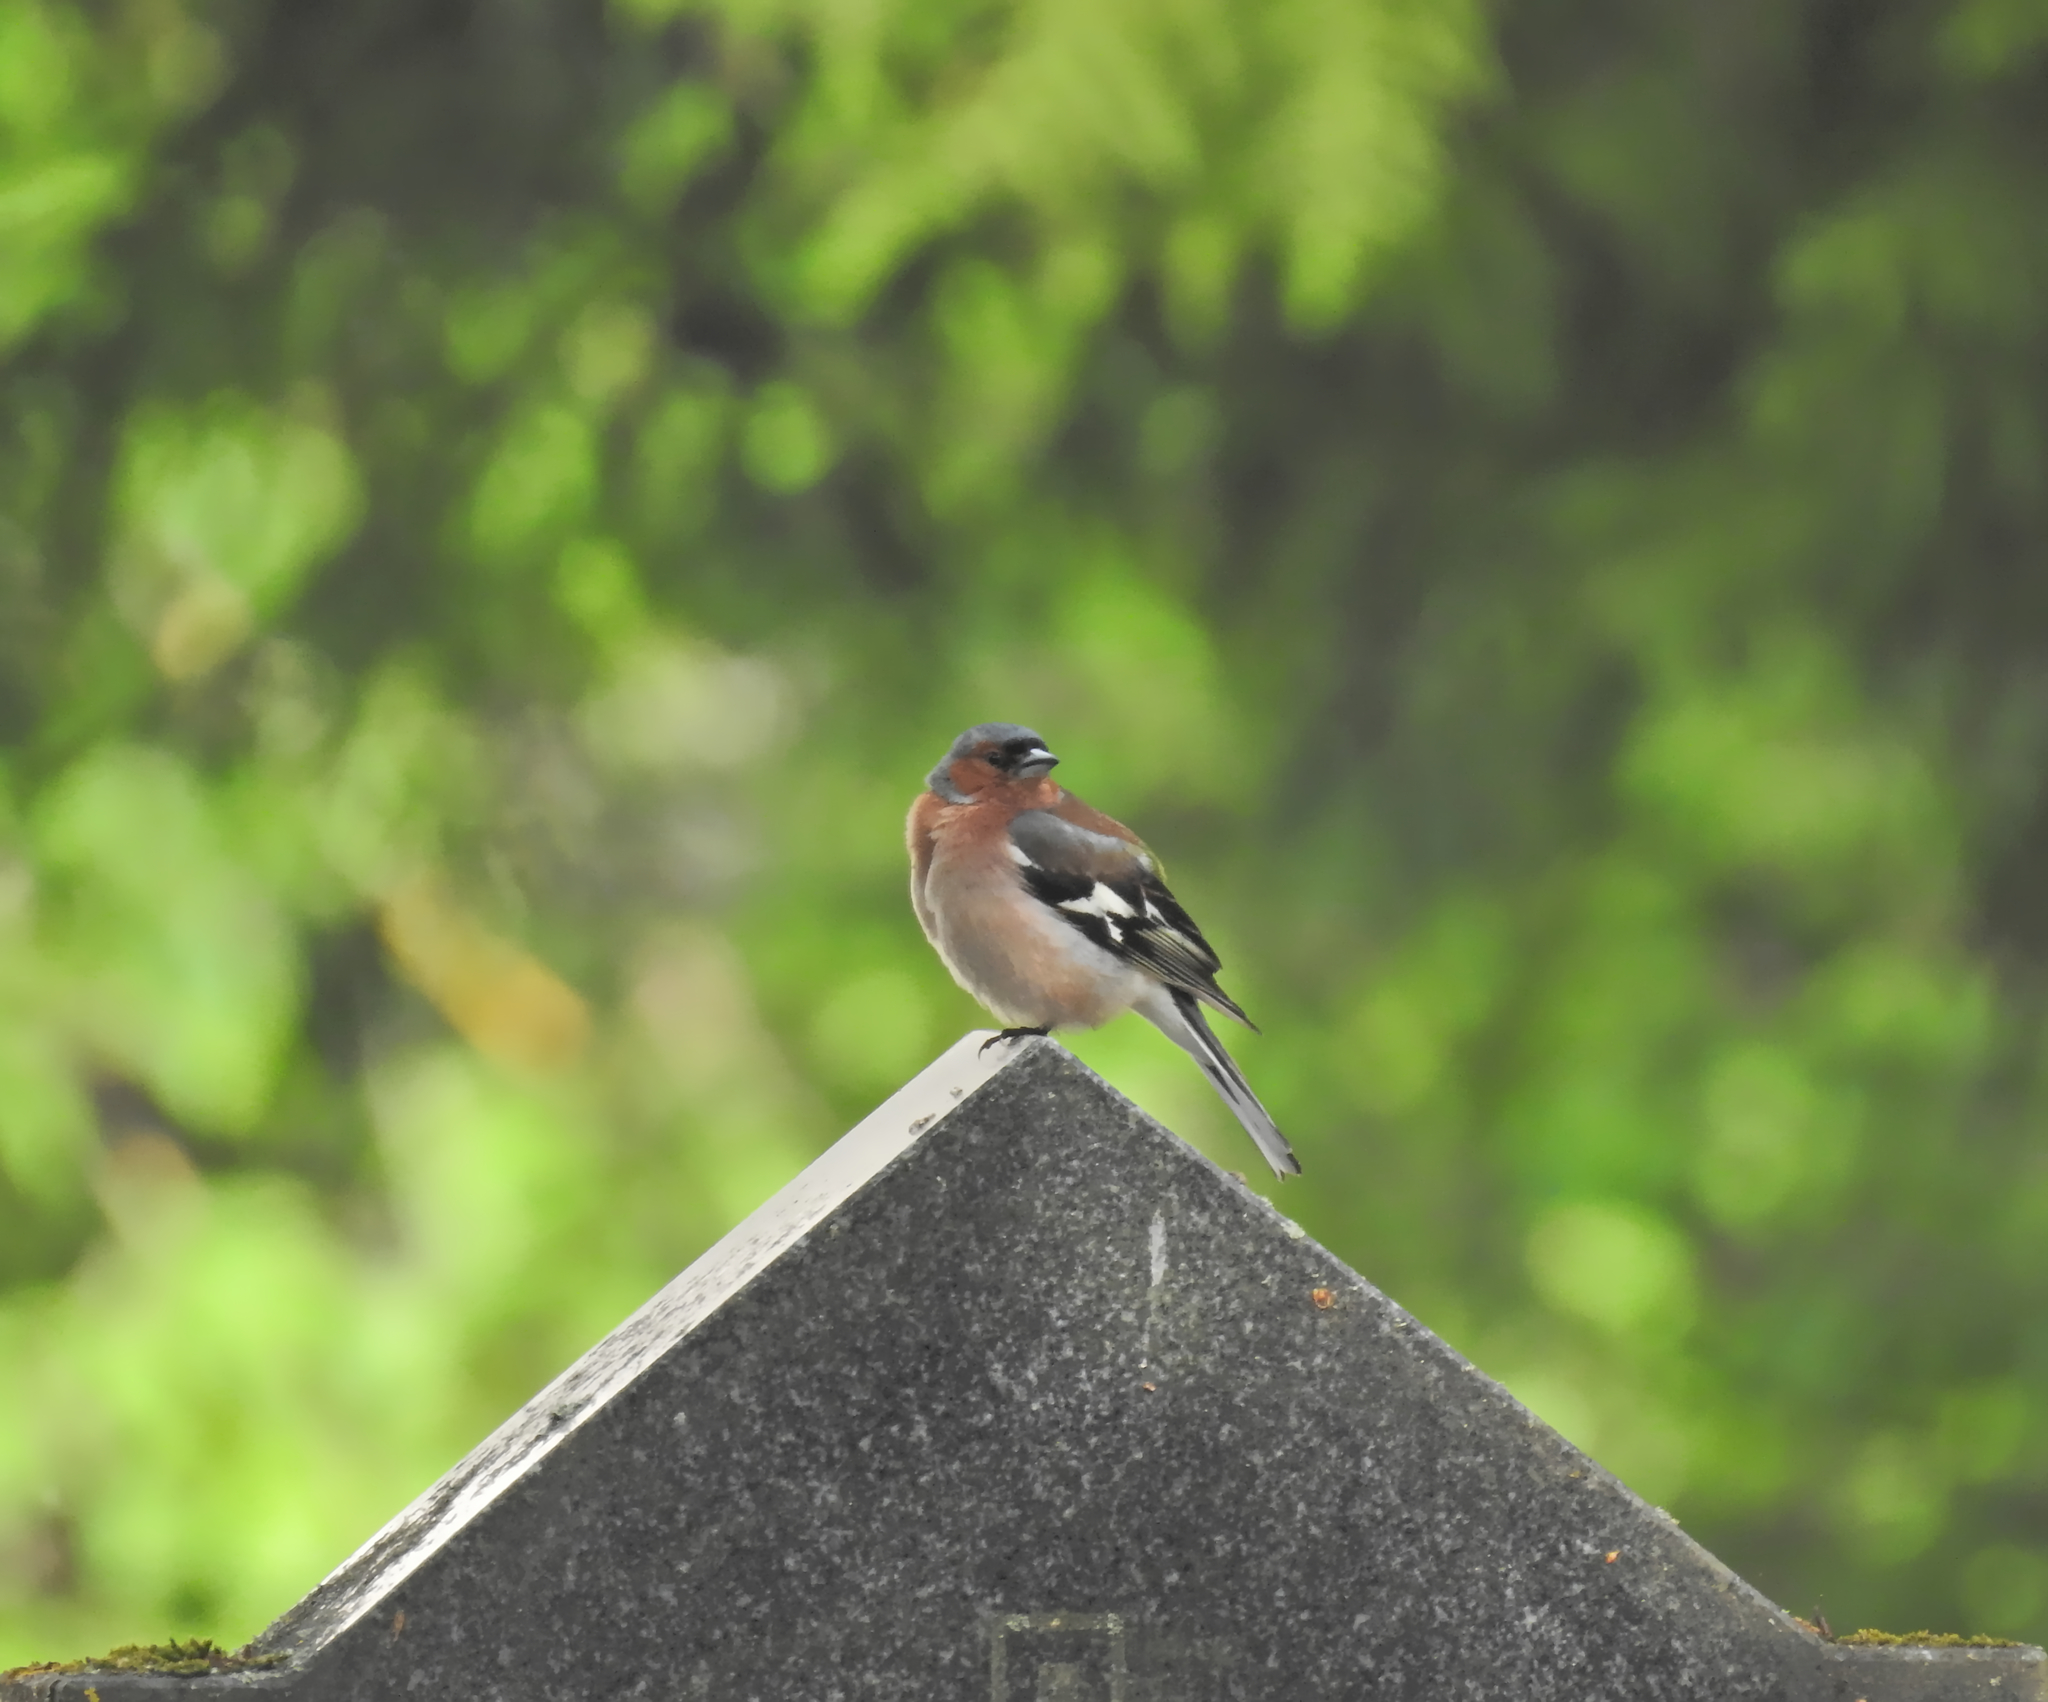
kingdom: Animalia
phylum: Chordata
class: Aves
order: Passeriformes
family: Fringillidae
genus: Fringilla
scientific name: Fringilla coelebs
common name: Common chaffinch
